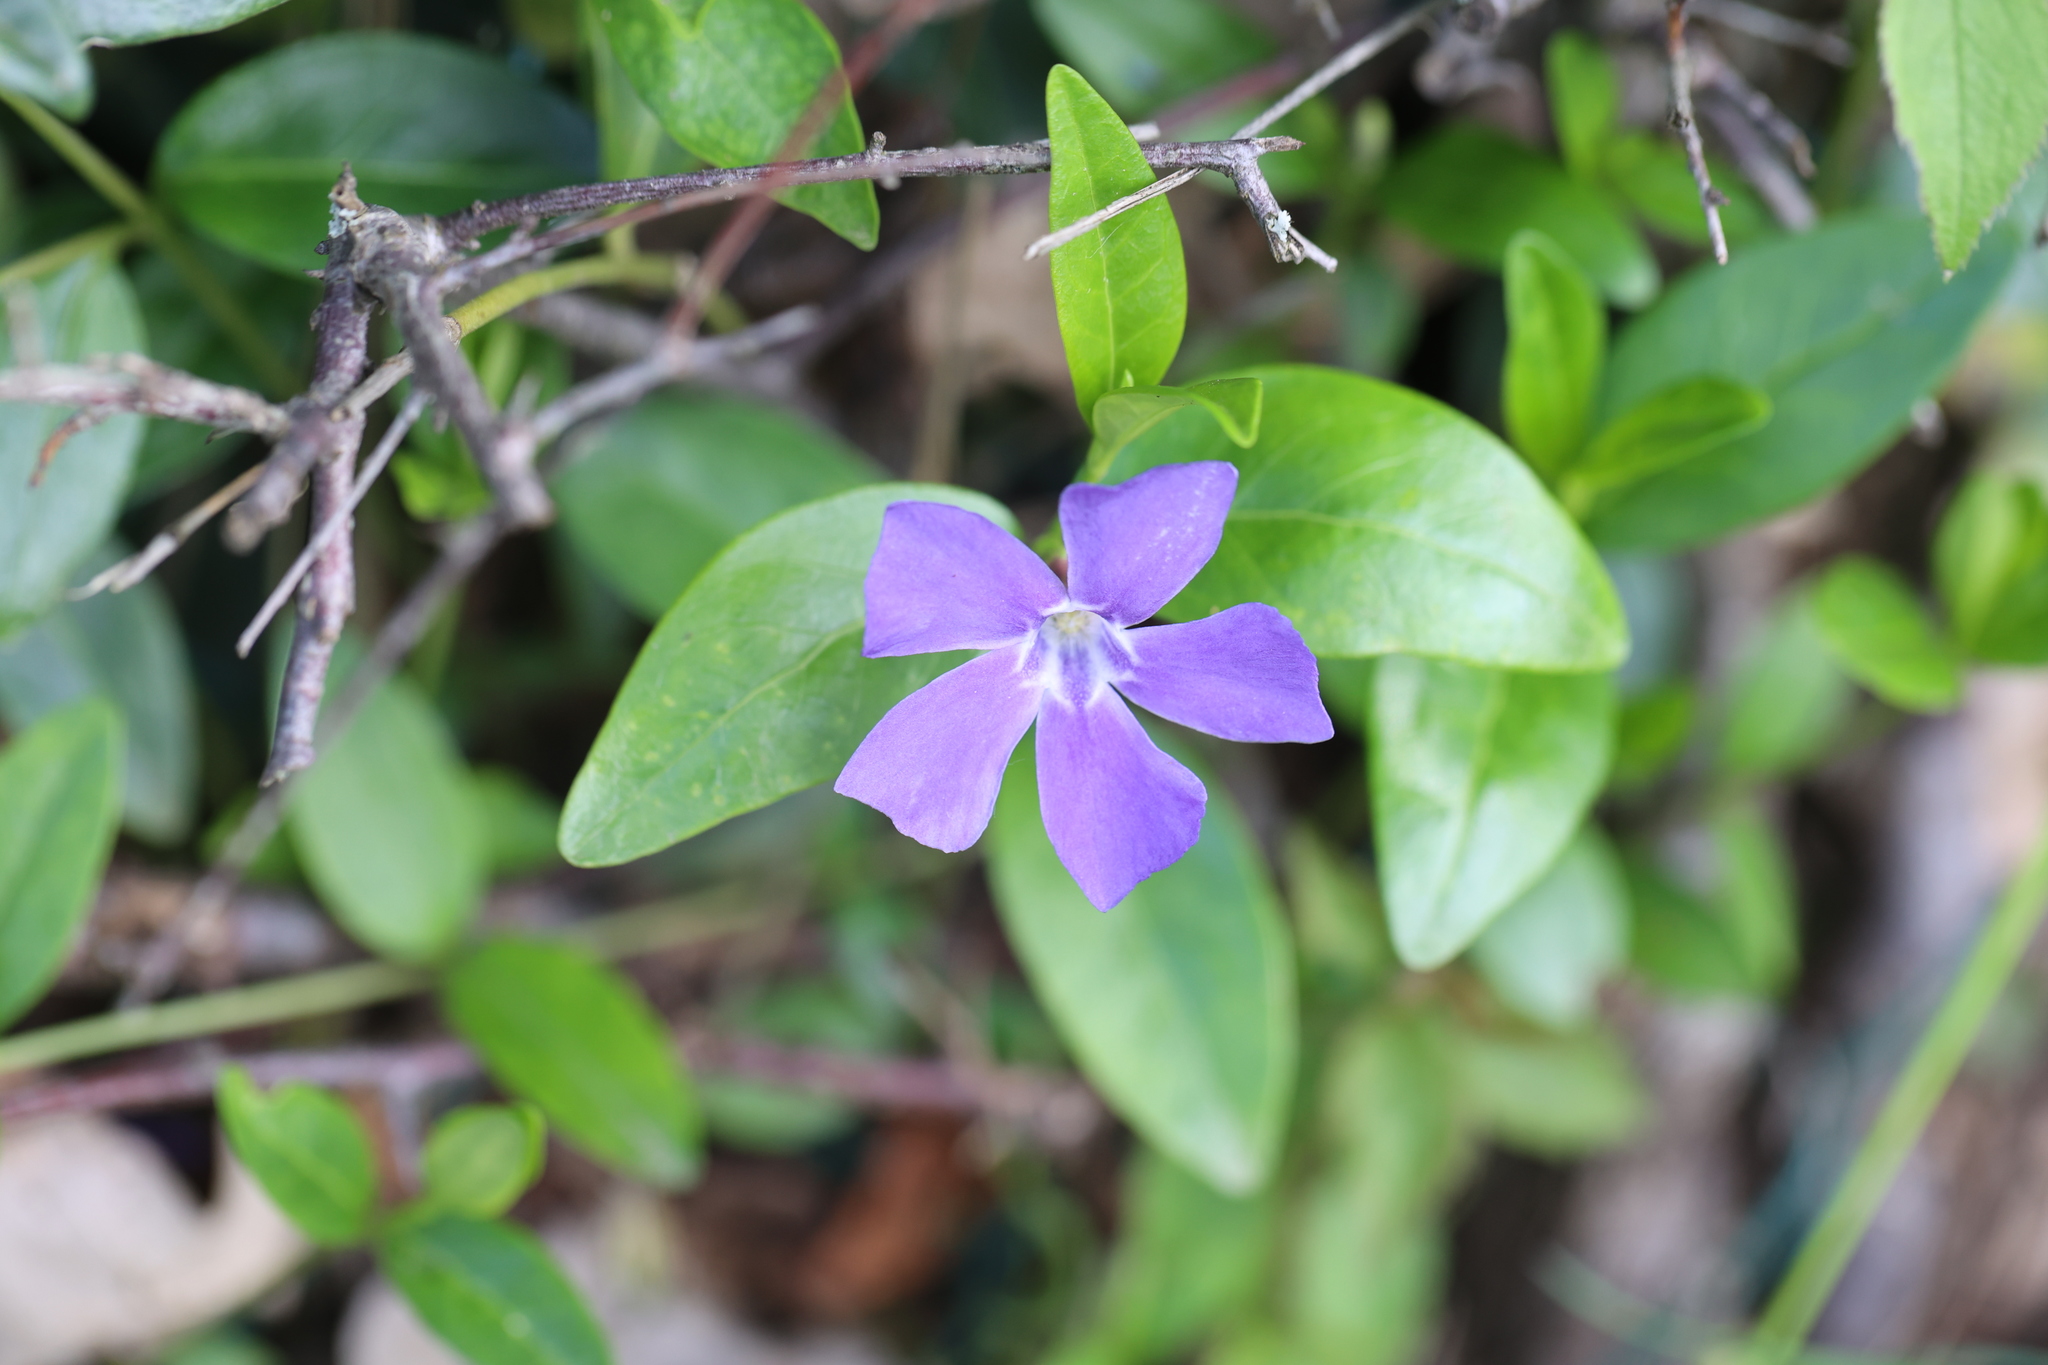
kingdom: Plantae
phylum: Tracheophyta
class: Magnoliopsida
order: Gentianales
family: Apocynaceae
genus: Vinca
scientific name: Vinca minor
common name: Lesser periwinkle
